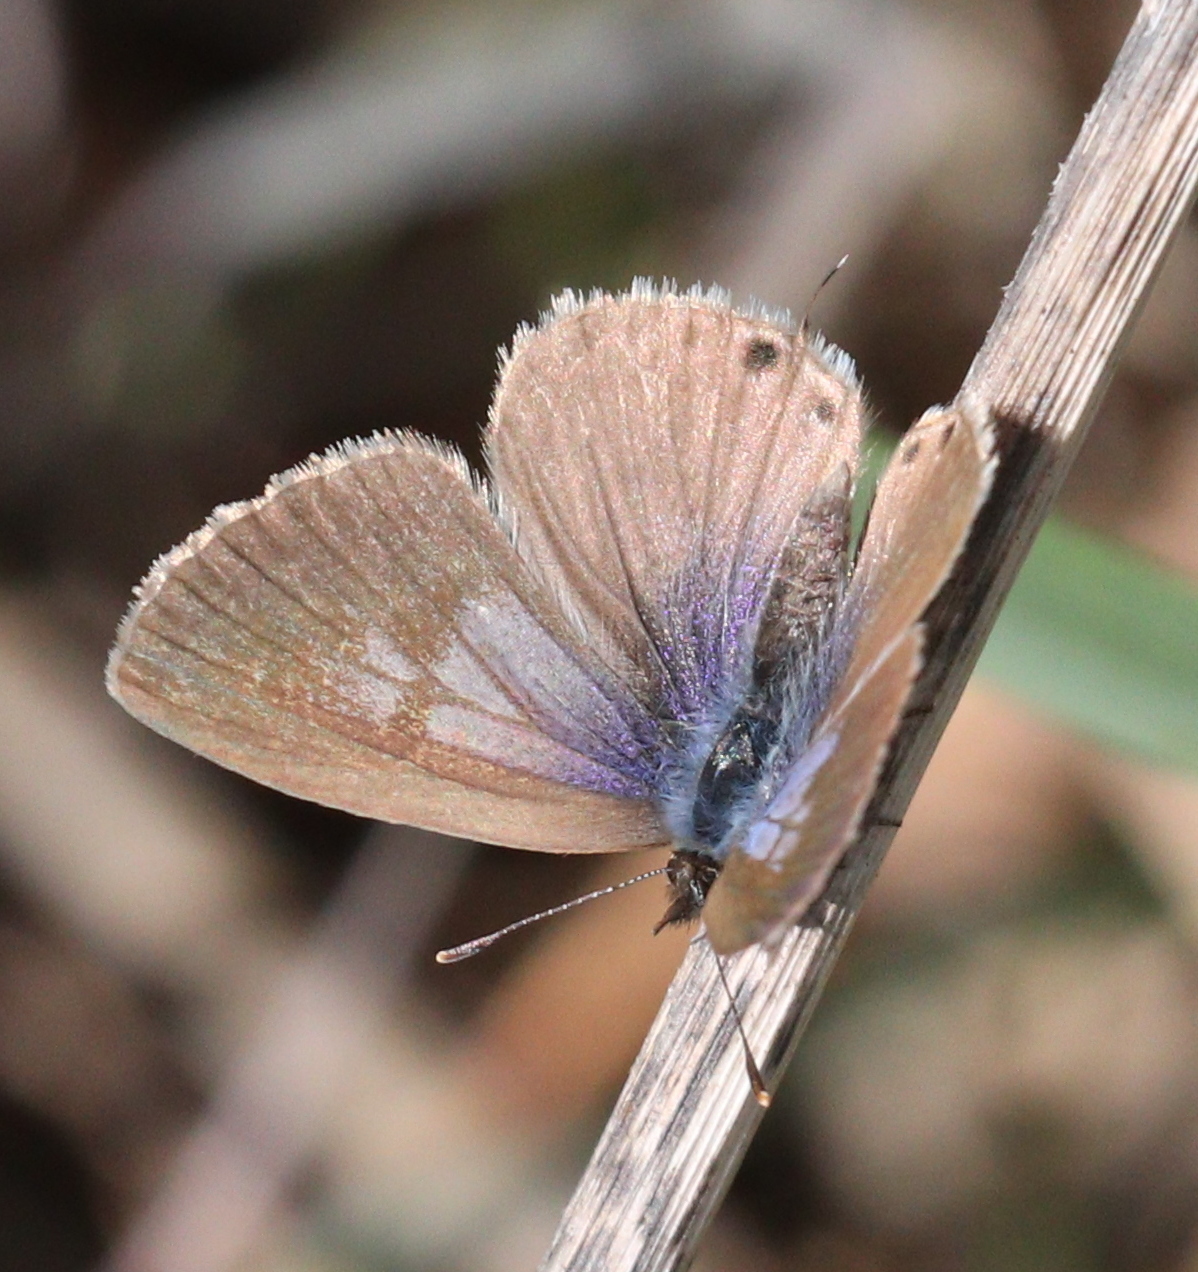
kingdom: Animalia
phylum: Arthropoda
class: Insecta
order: Lepidoptera
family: Lycaenidae
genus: Leptotes
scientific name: Leptotes pirithous
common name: Lang's short-tailed blue
